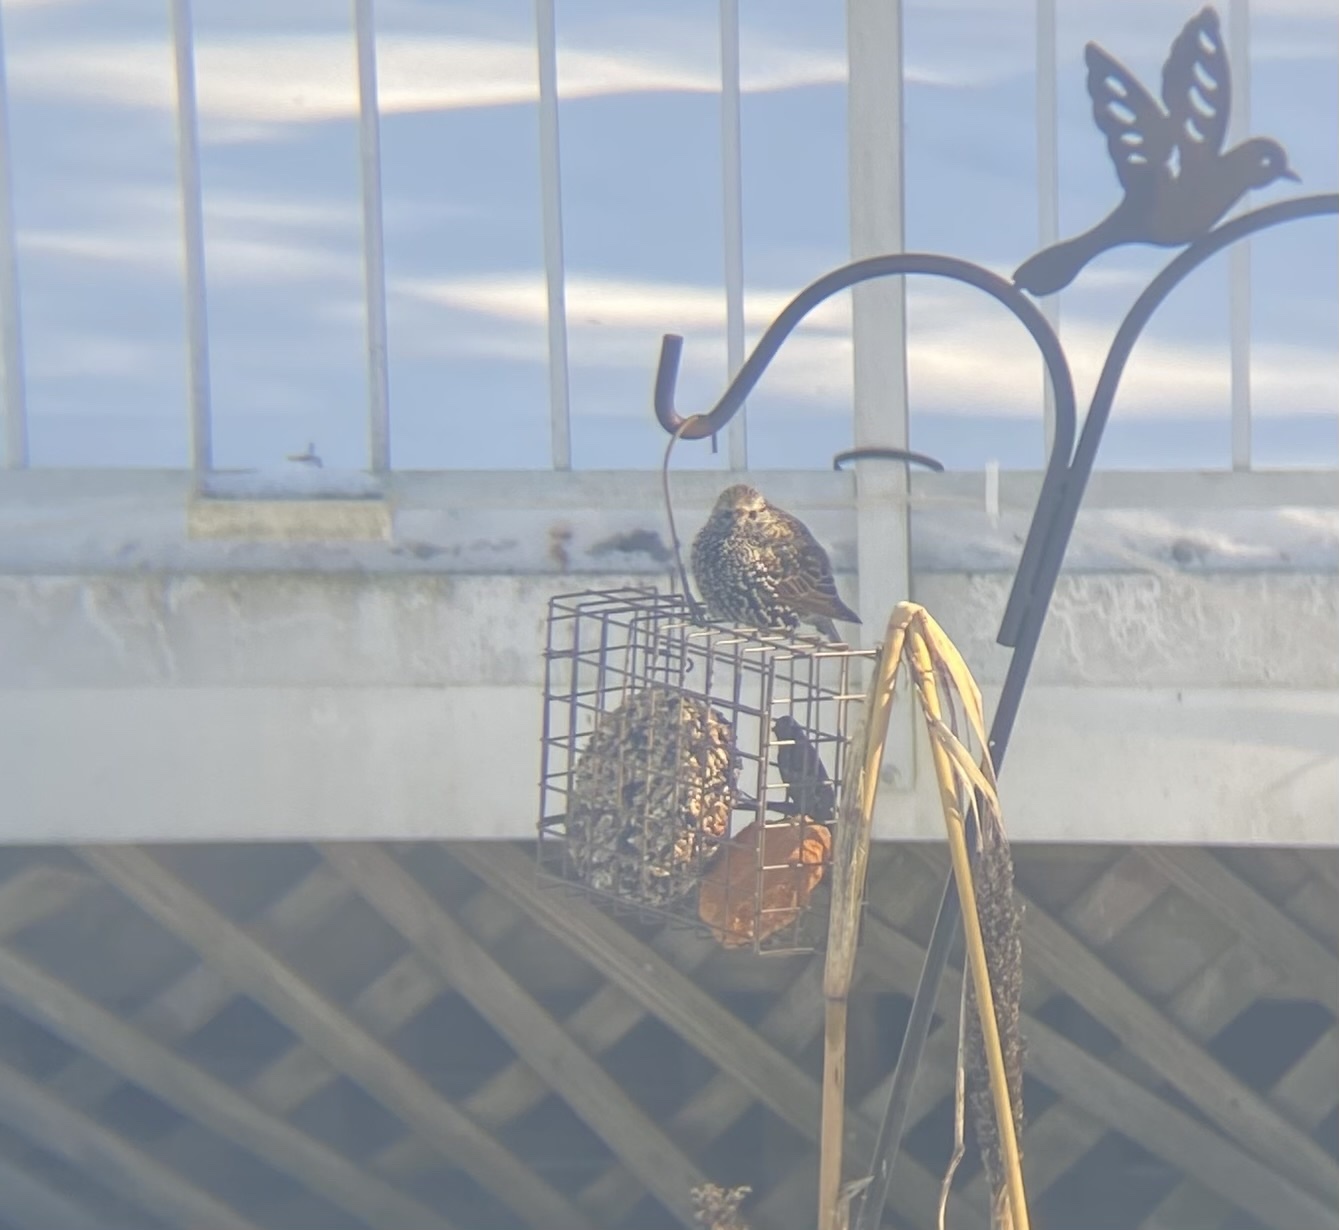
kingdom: Animalia
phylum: Chordata
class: Aves
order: Passeriformes
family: Sturnidae
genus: Sturnus
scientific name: Sturnus vulgaris
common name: Common starling
